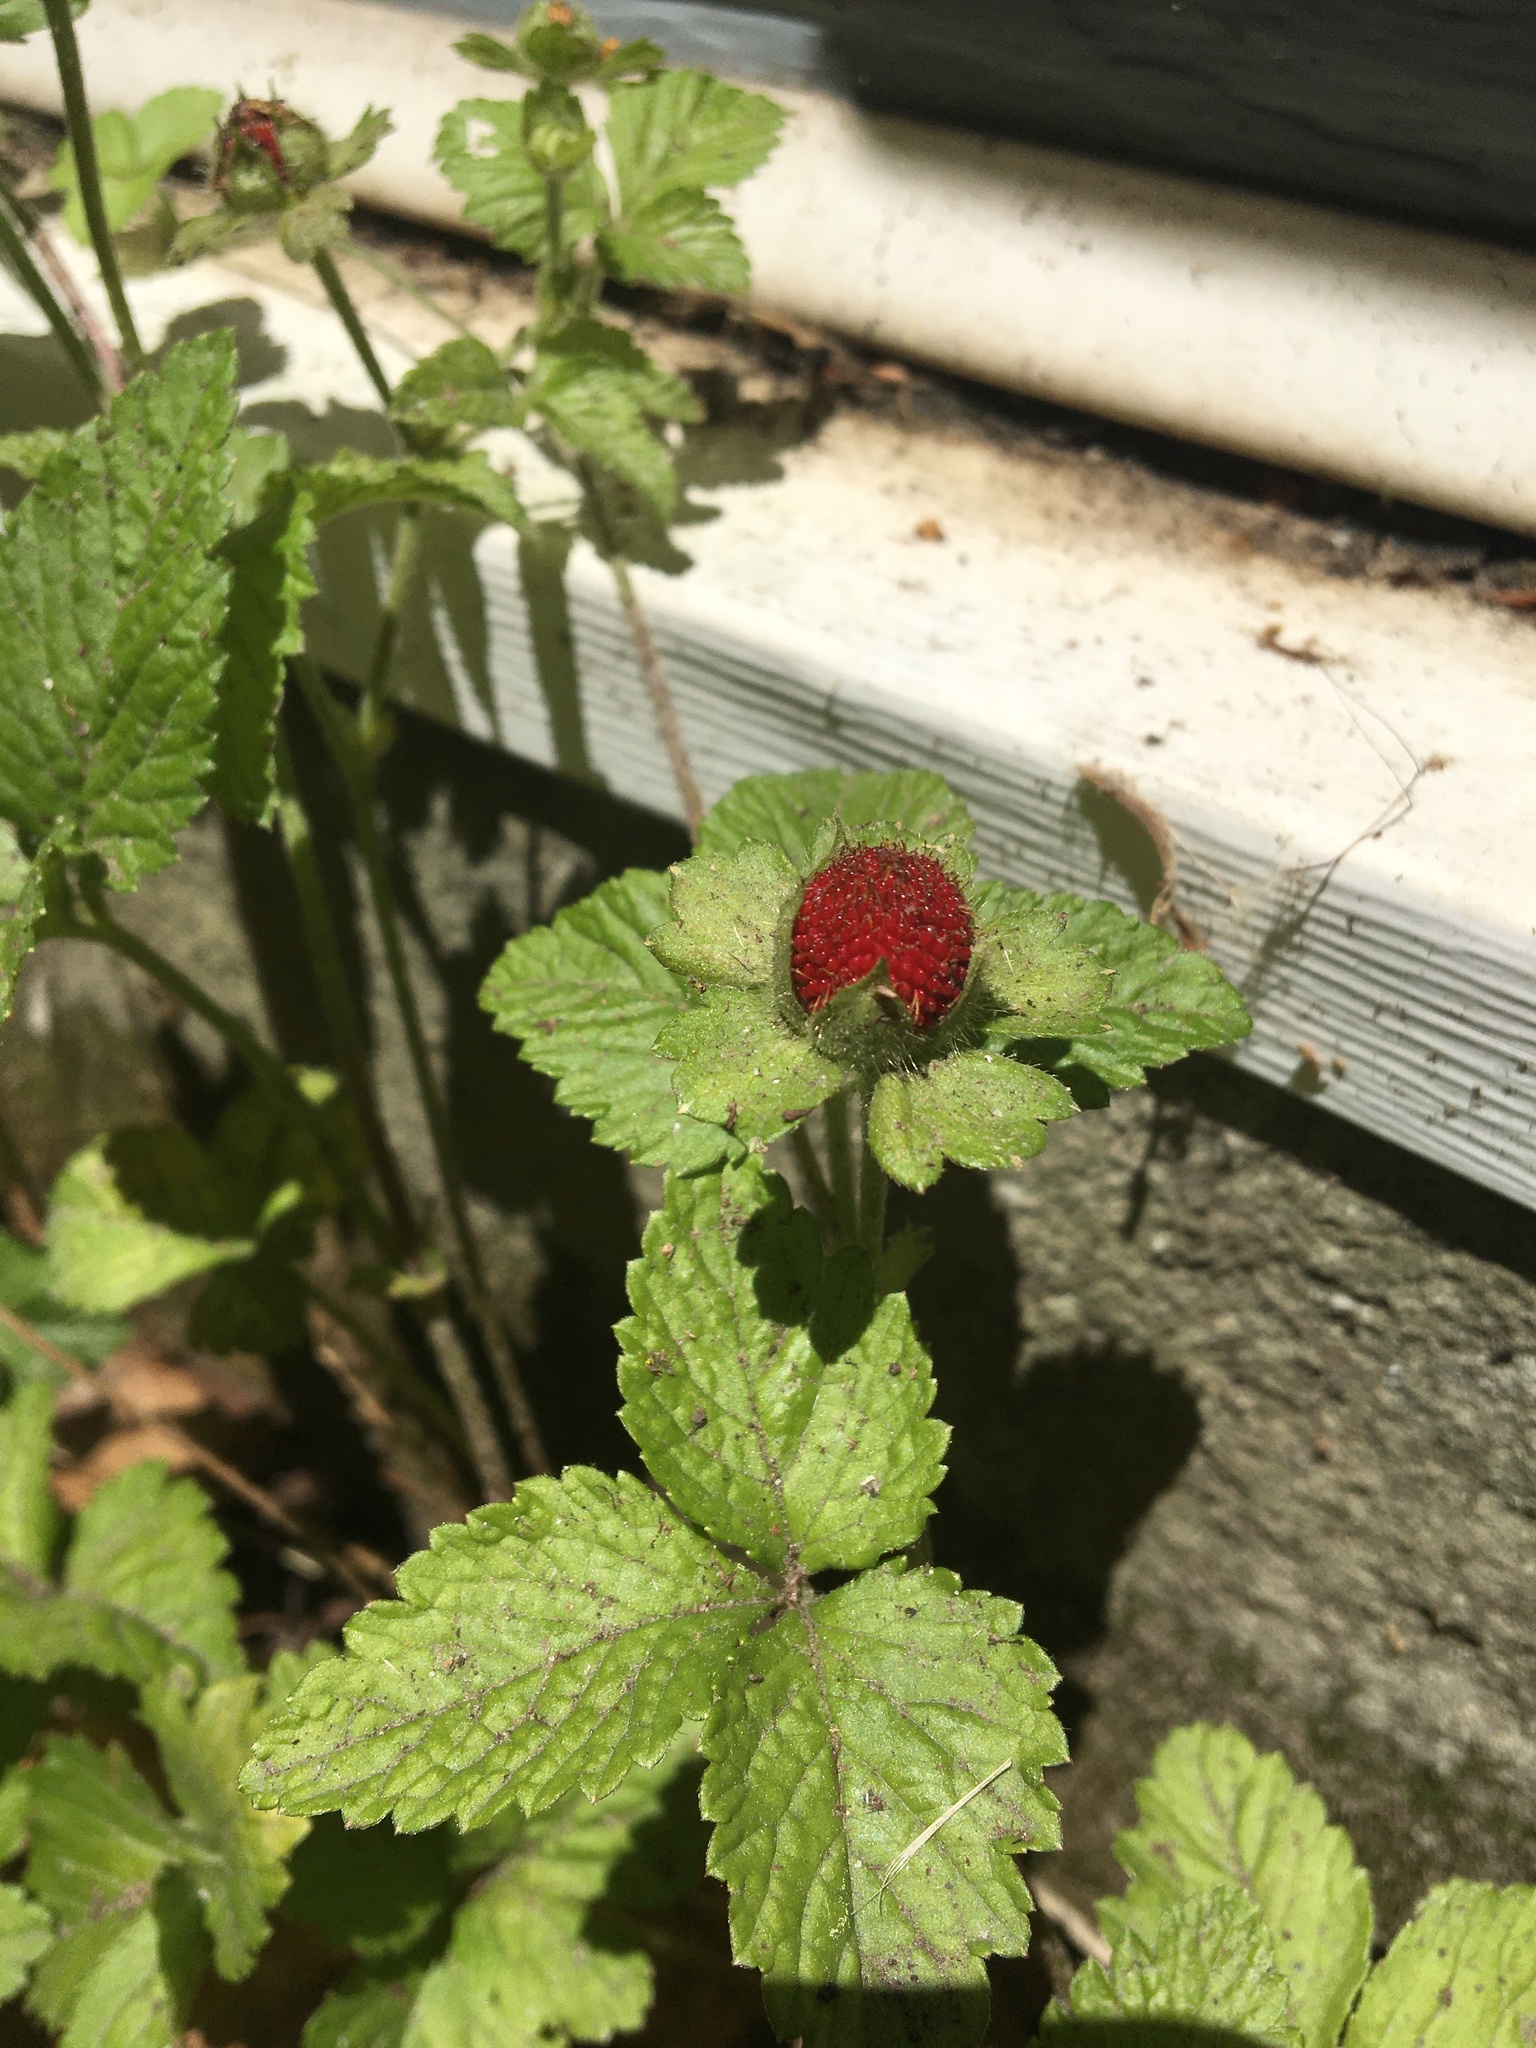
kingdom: Plantae
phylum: Tracheophyta
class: Magnoliopsida
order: Rosales
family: Rosaceae
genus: Potentilla
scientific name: Potentilla indica
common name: Yellow-flowered strawberry
